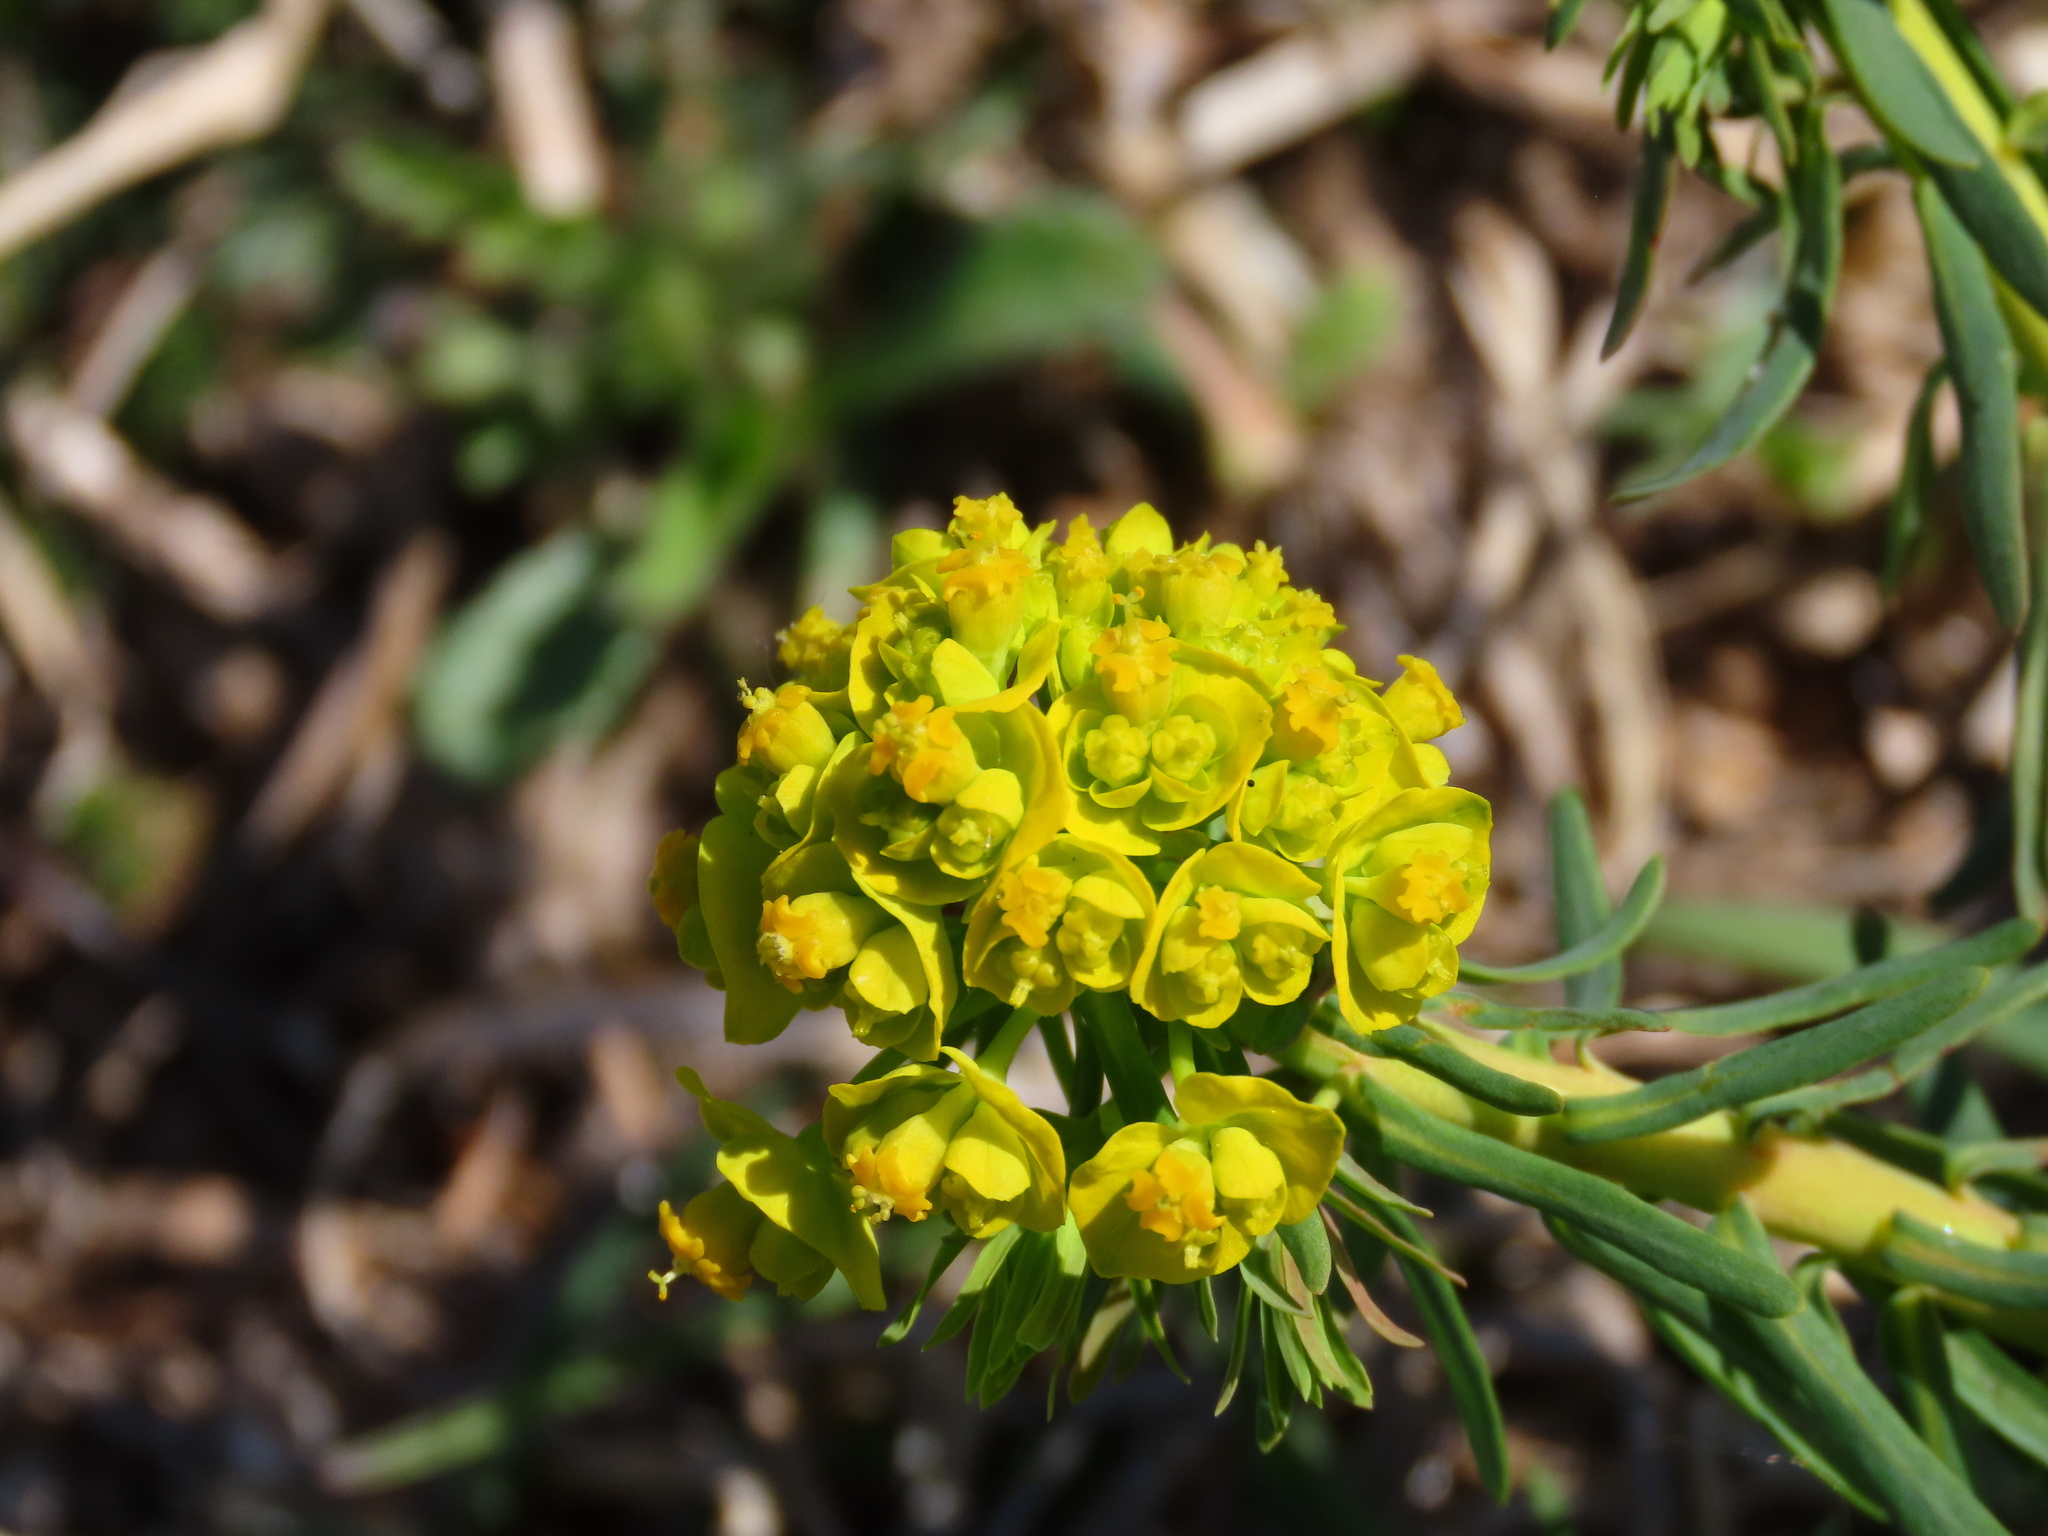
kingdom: Plantae
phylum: Tracheophyta
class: Magnoliopsida
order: Malpighiales
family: Euphorbiaceae
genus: Euphorbia
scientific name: Euphorbia cyparissias
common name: Cypress spurge
